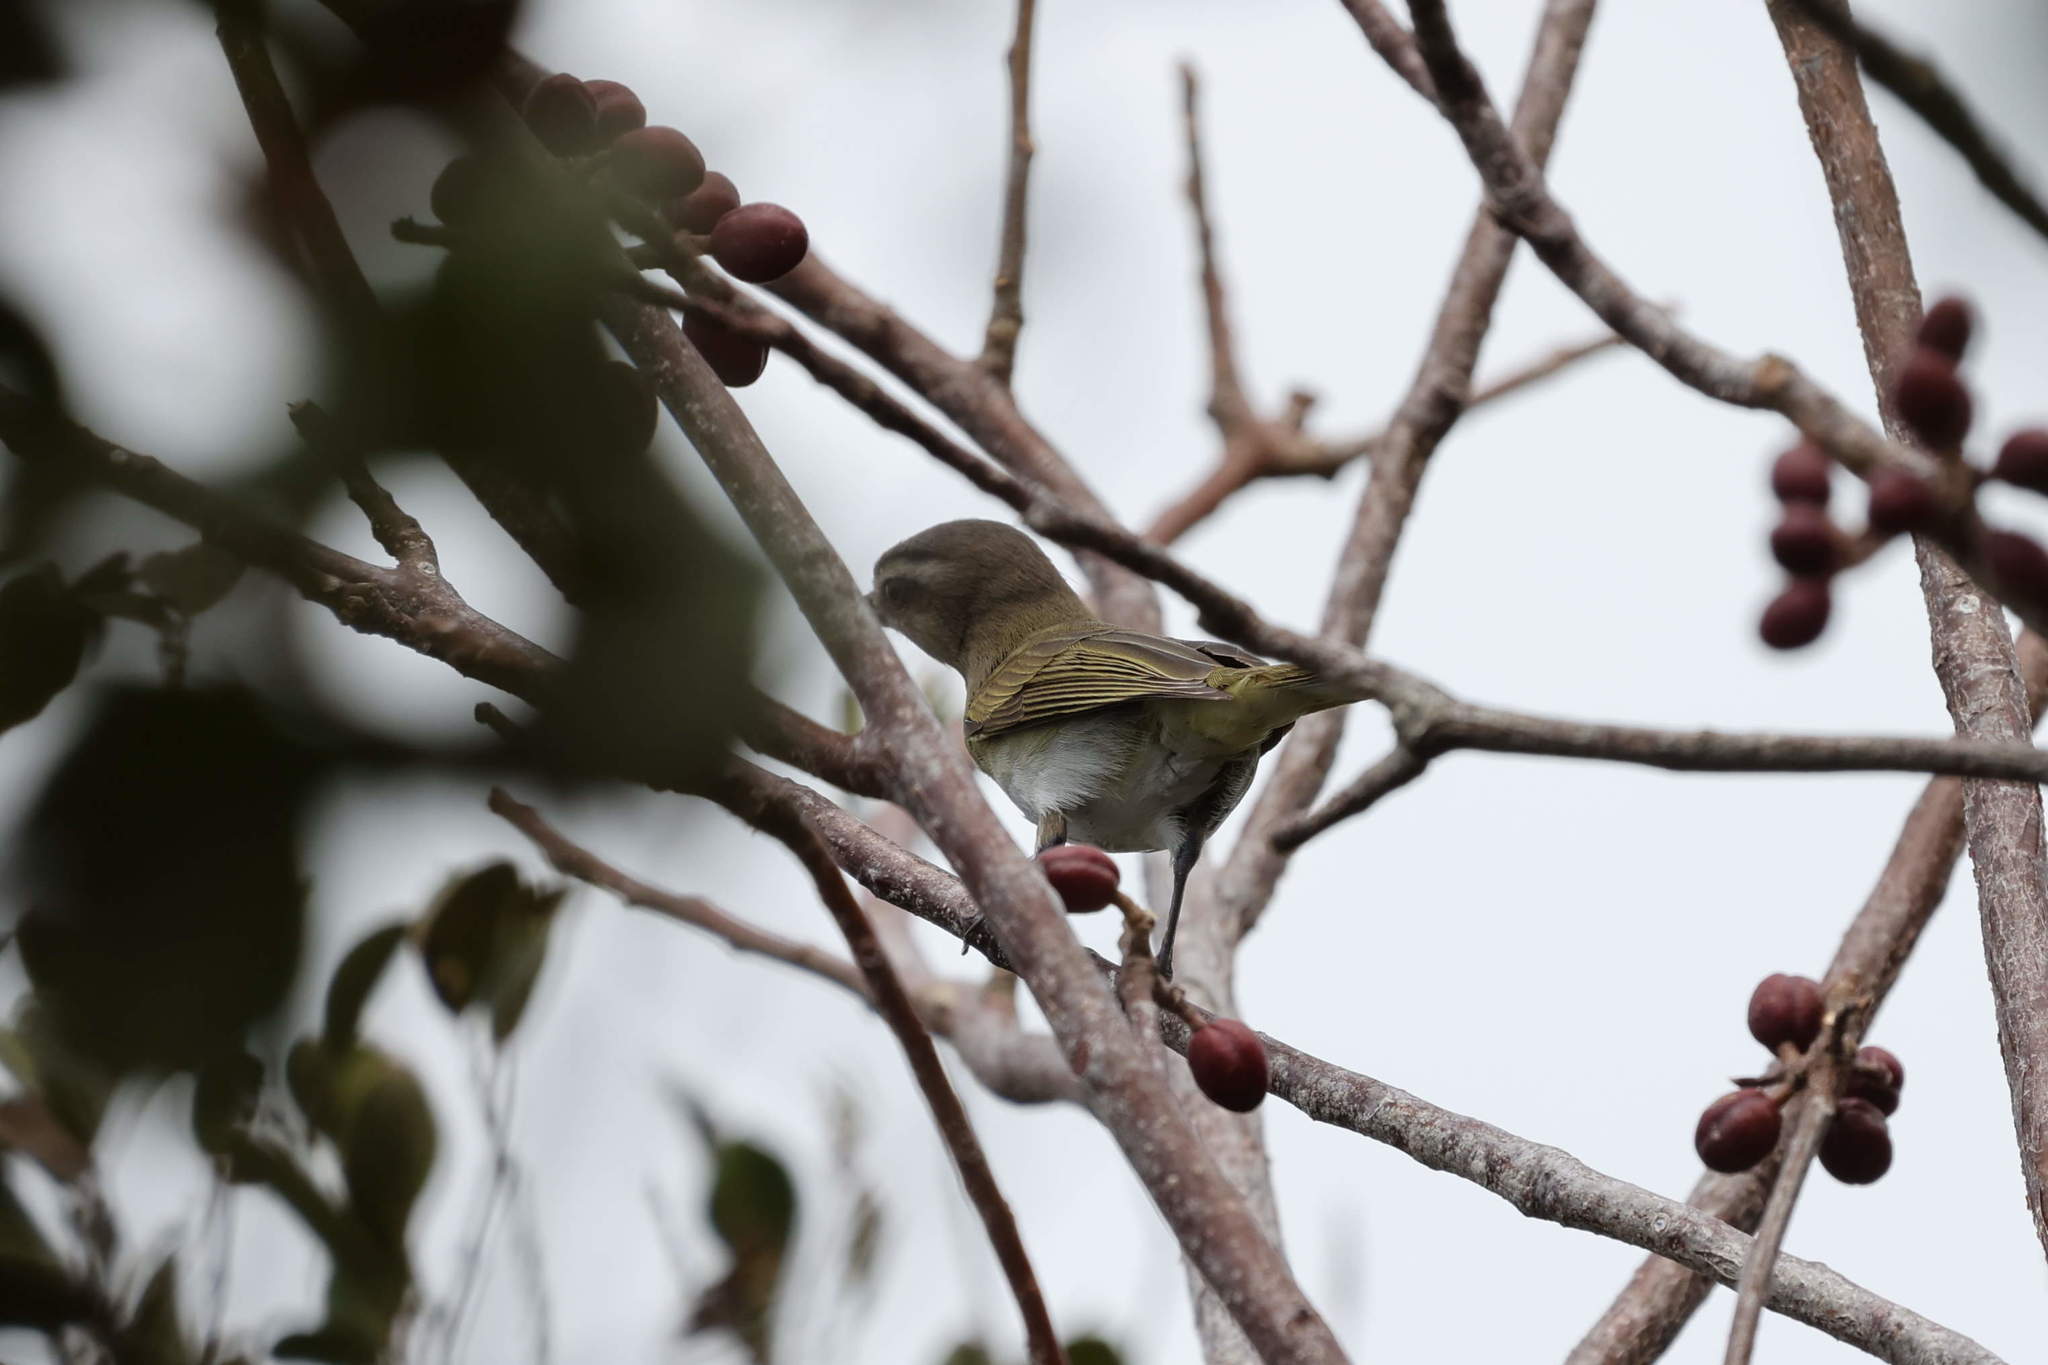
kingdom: Animalia
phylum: Chordata
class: Aves
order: Passeriformes
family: Vireonidae
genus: Vireo
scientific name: Vireo altiloquus
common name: Black-whiskered vireo
